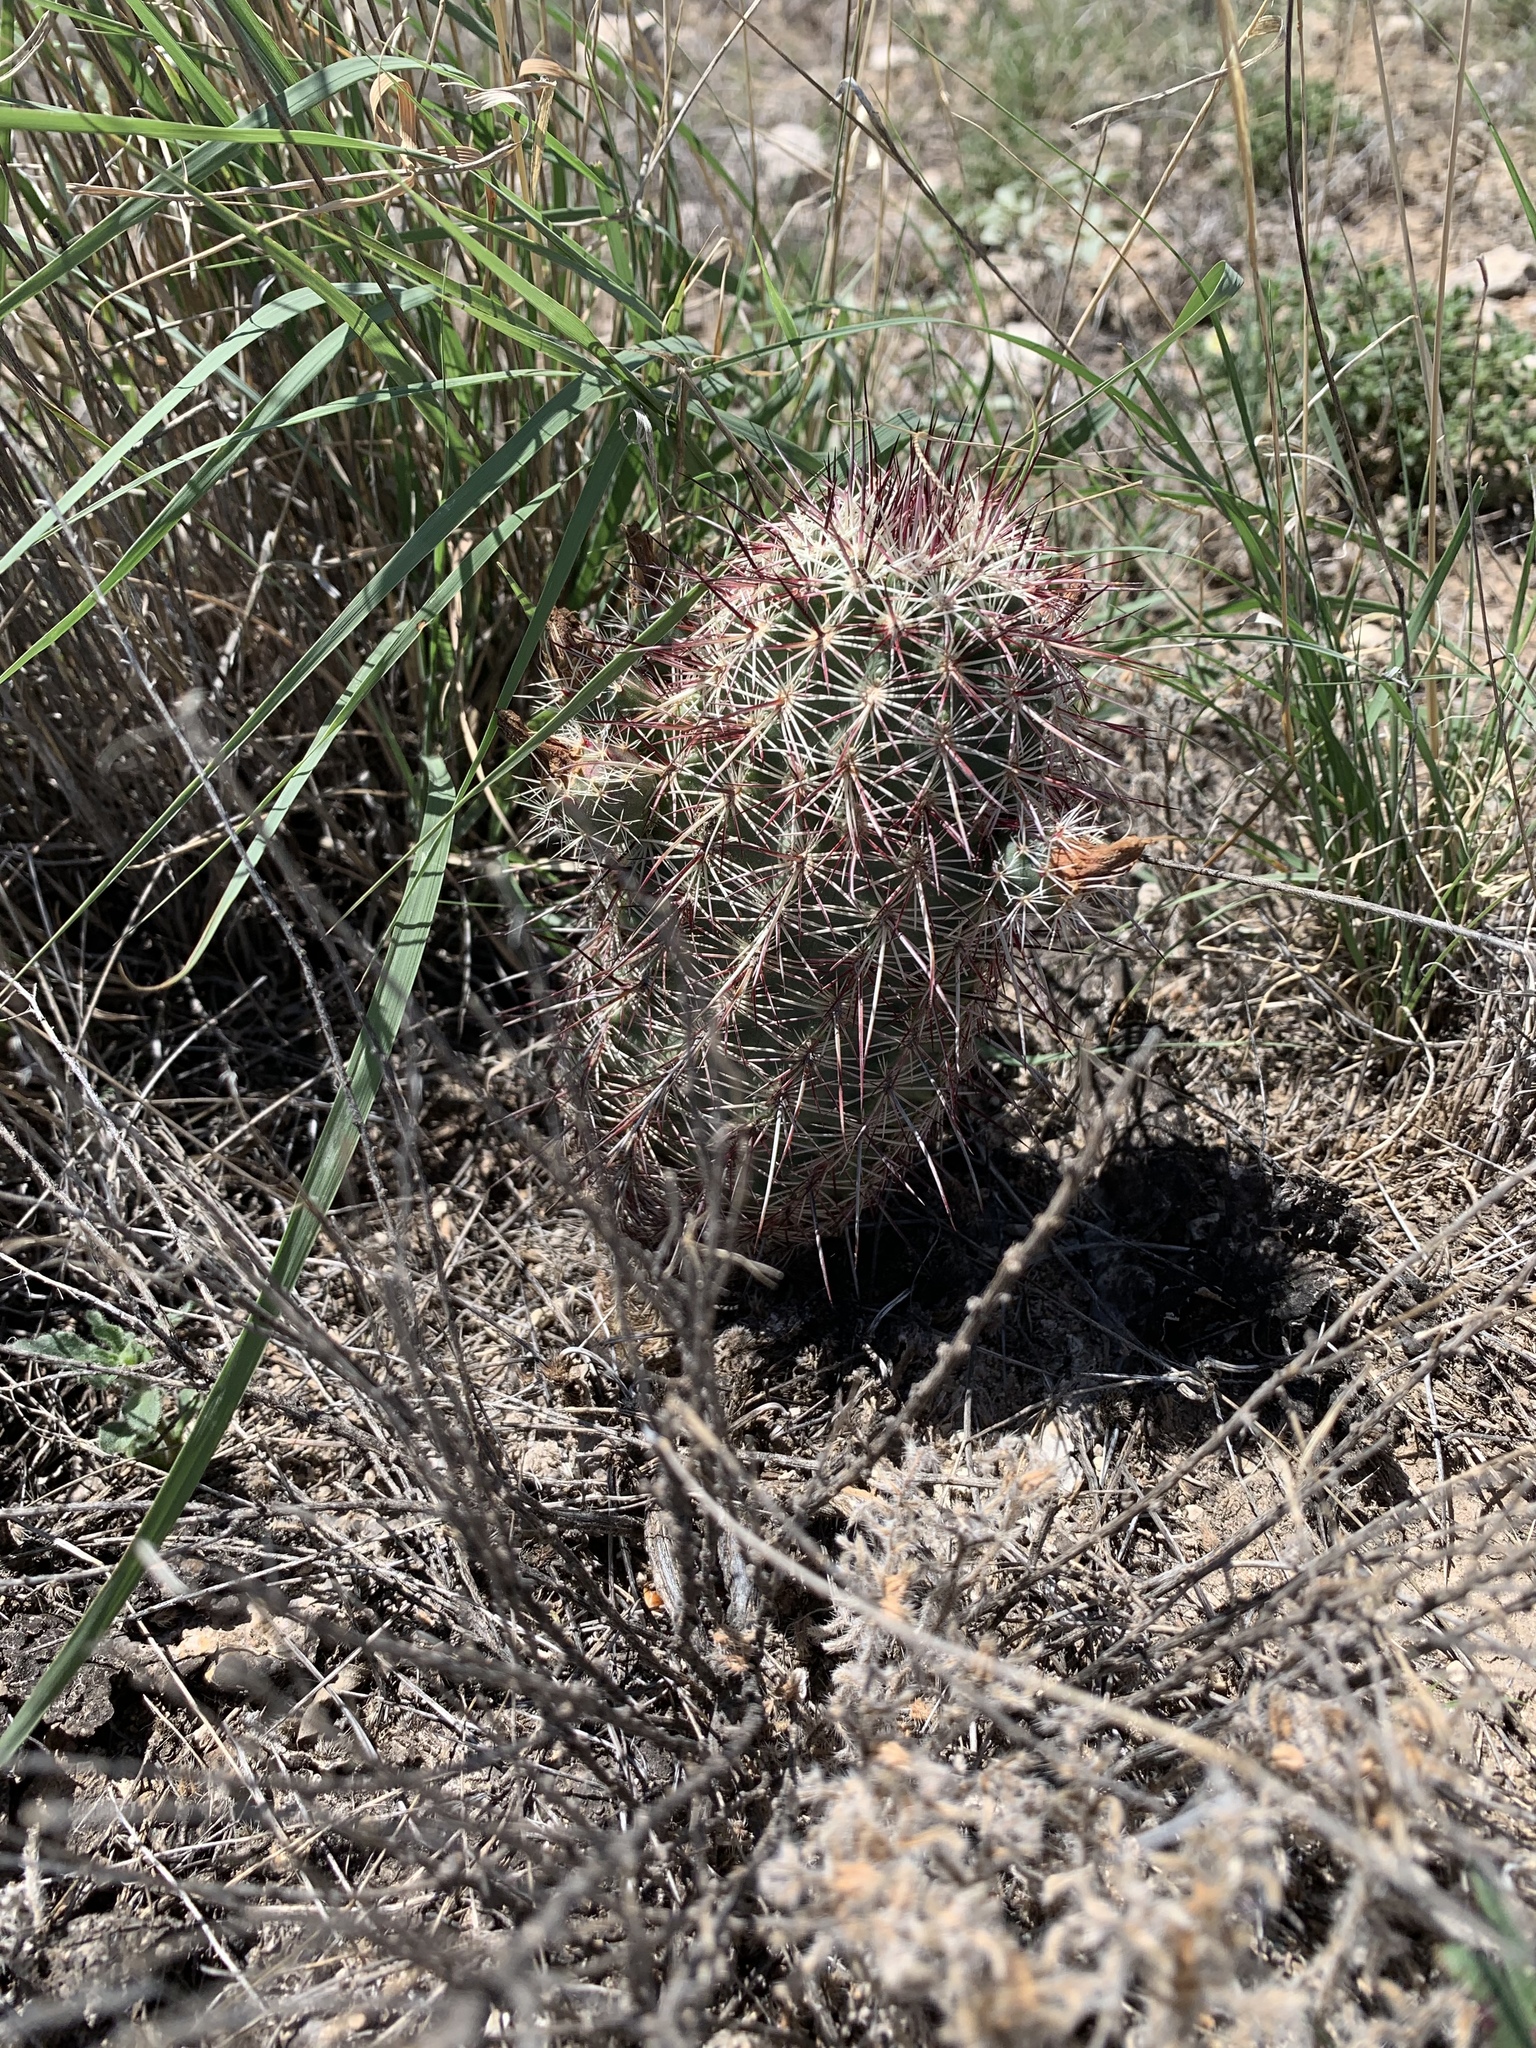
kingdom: Plantae
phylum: Tracheophyta
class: Magnoliopsida
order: Caryophyllales
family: Cactaceae
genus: Echinocereus
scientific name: Echinocereus viridiflorus
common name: Nylon hedgehog cactus
